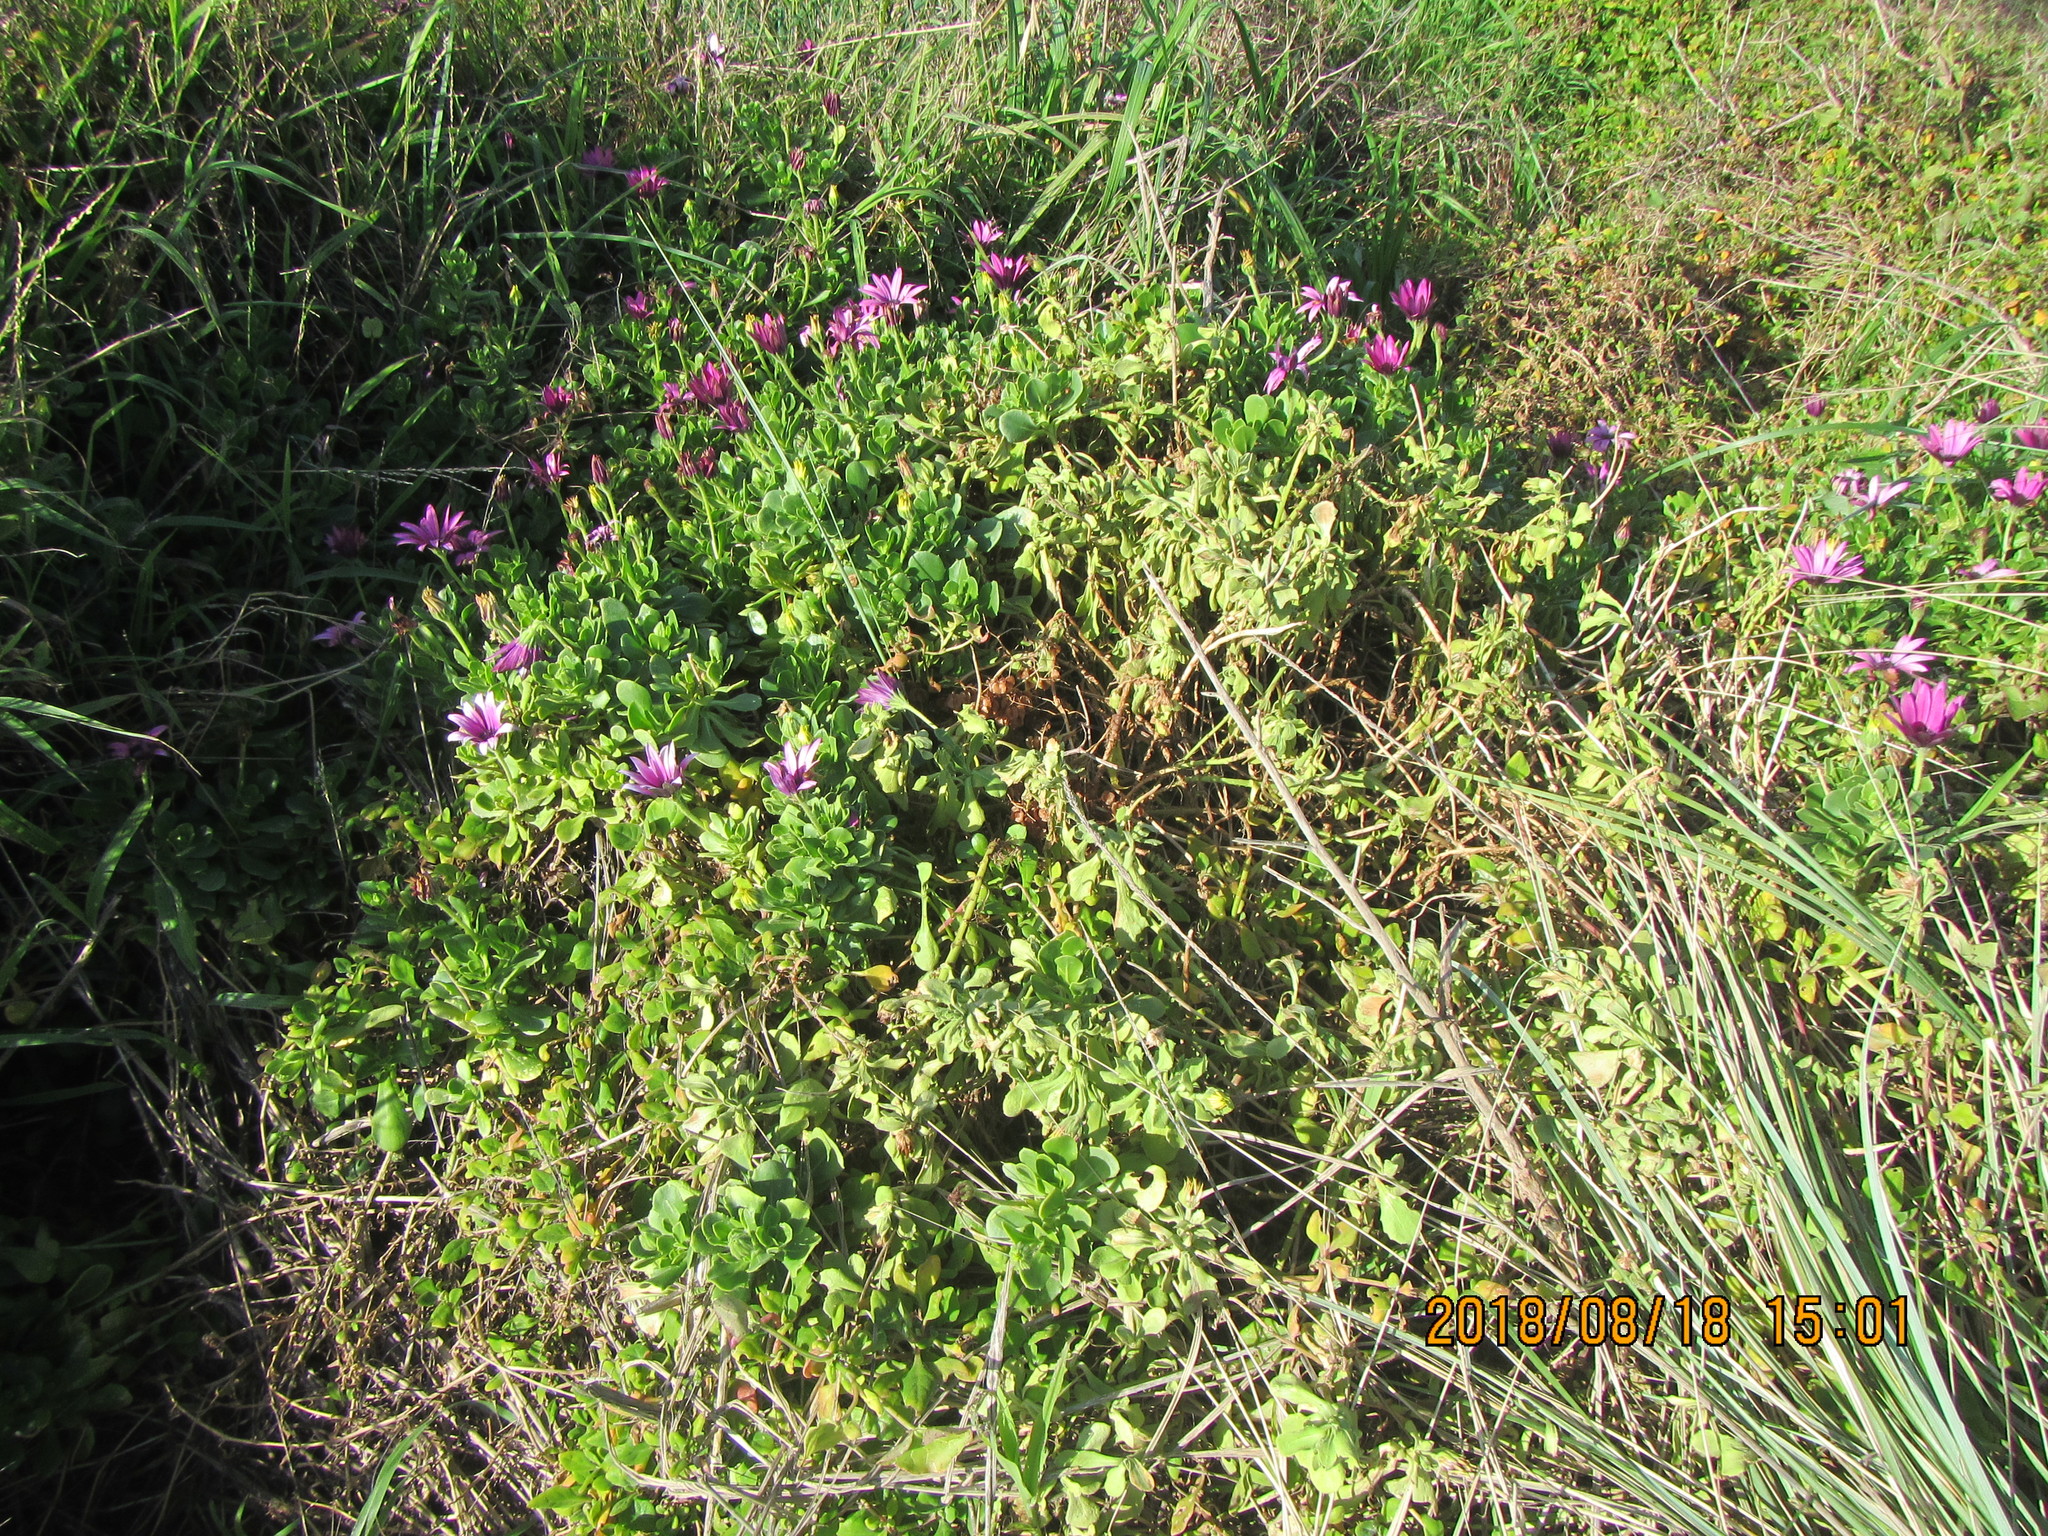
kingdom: Plantae
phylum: Tracheophyta
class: Magnoliopsida
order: Asterales
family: Asteraceae
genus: Dimorphotheca
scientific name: Dimorphotheca jucunda
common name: Osteospermum
